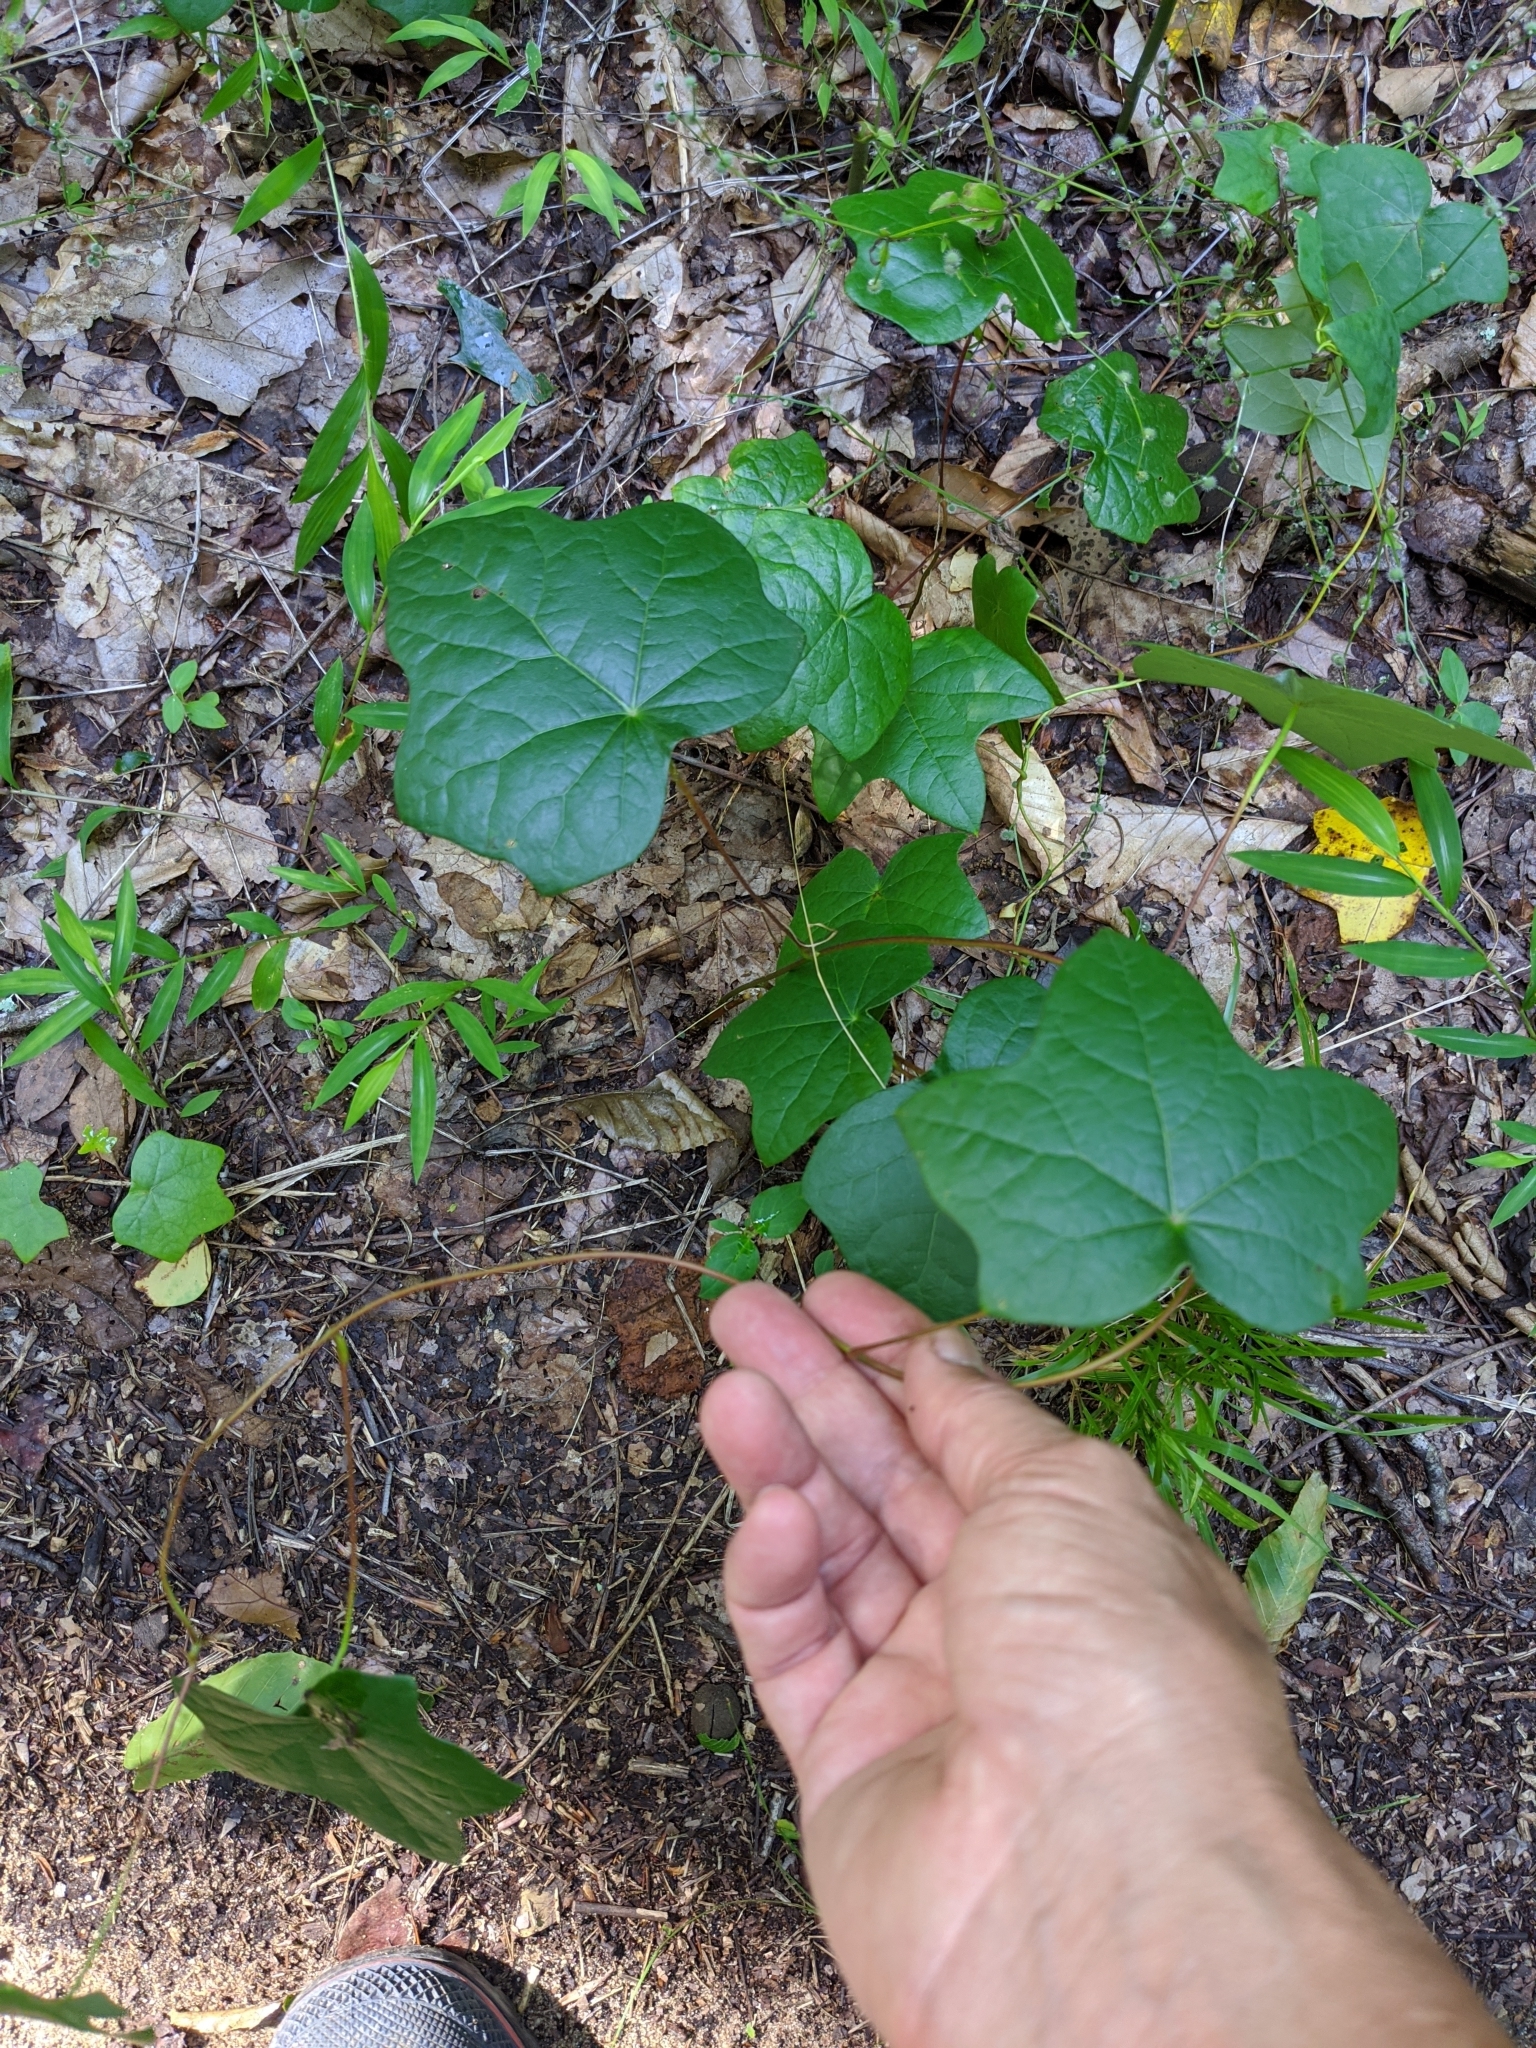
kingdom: Plantae
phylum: Tracheophyta
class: Magnoliopsida
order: Ranunculales
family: Menispermaceae
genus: Menispermum
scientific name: Menispermum canadense
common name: Moonseed
